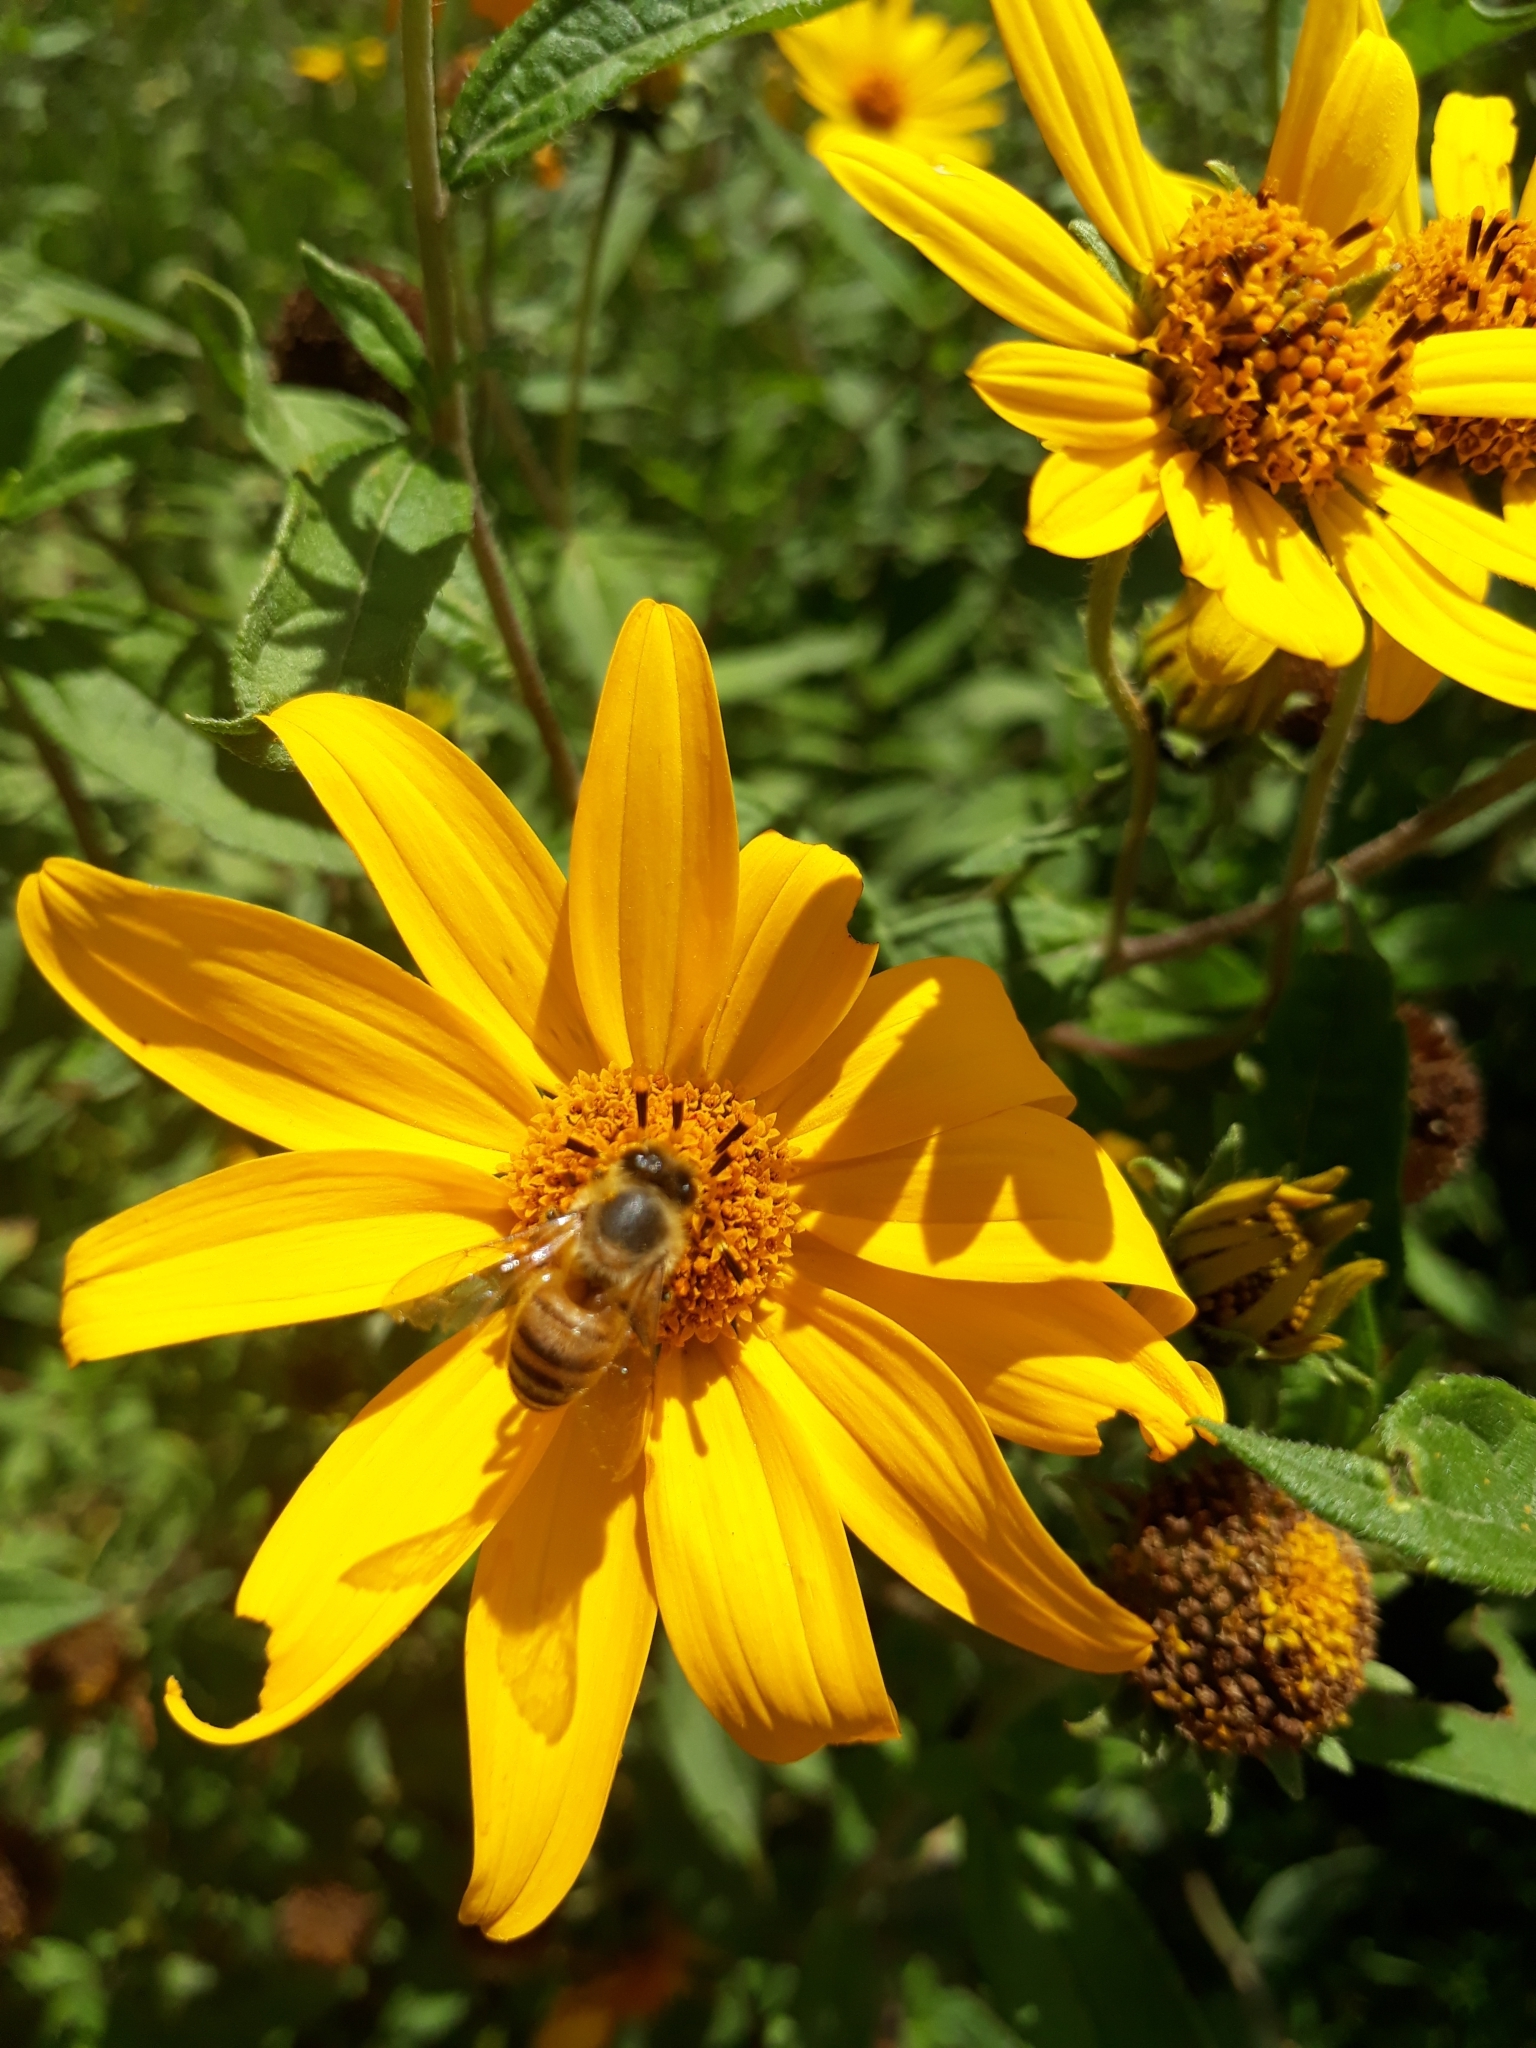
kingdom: Animalia
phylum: Arthropoda
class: Insecta
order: Hymenoptera
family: Apidae
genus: Apis
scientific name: Apis mellifera
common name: Honey bee
